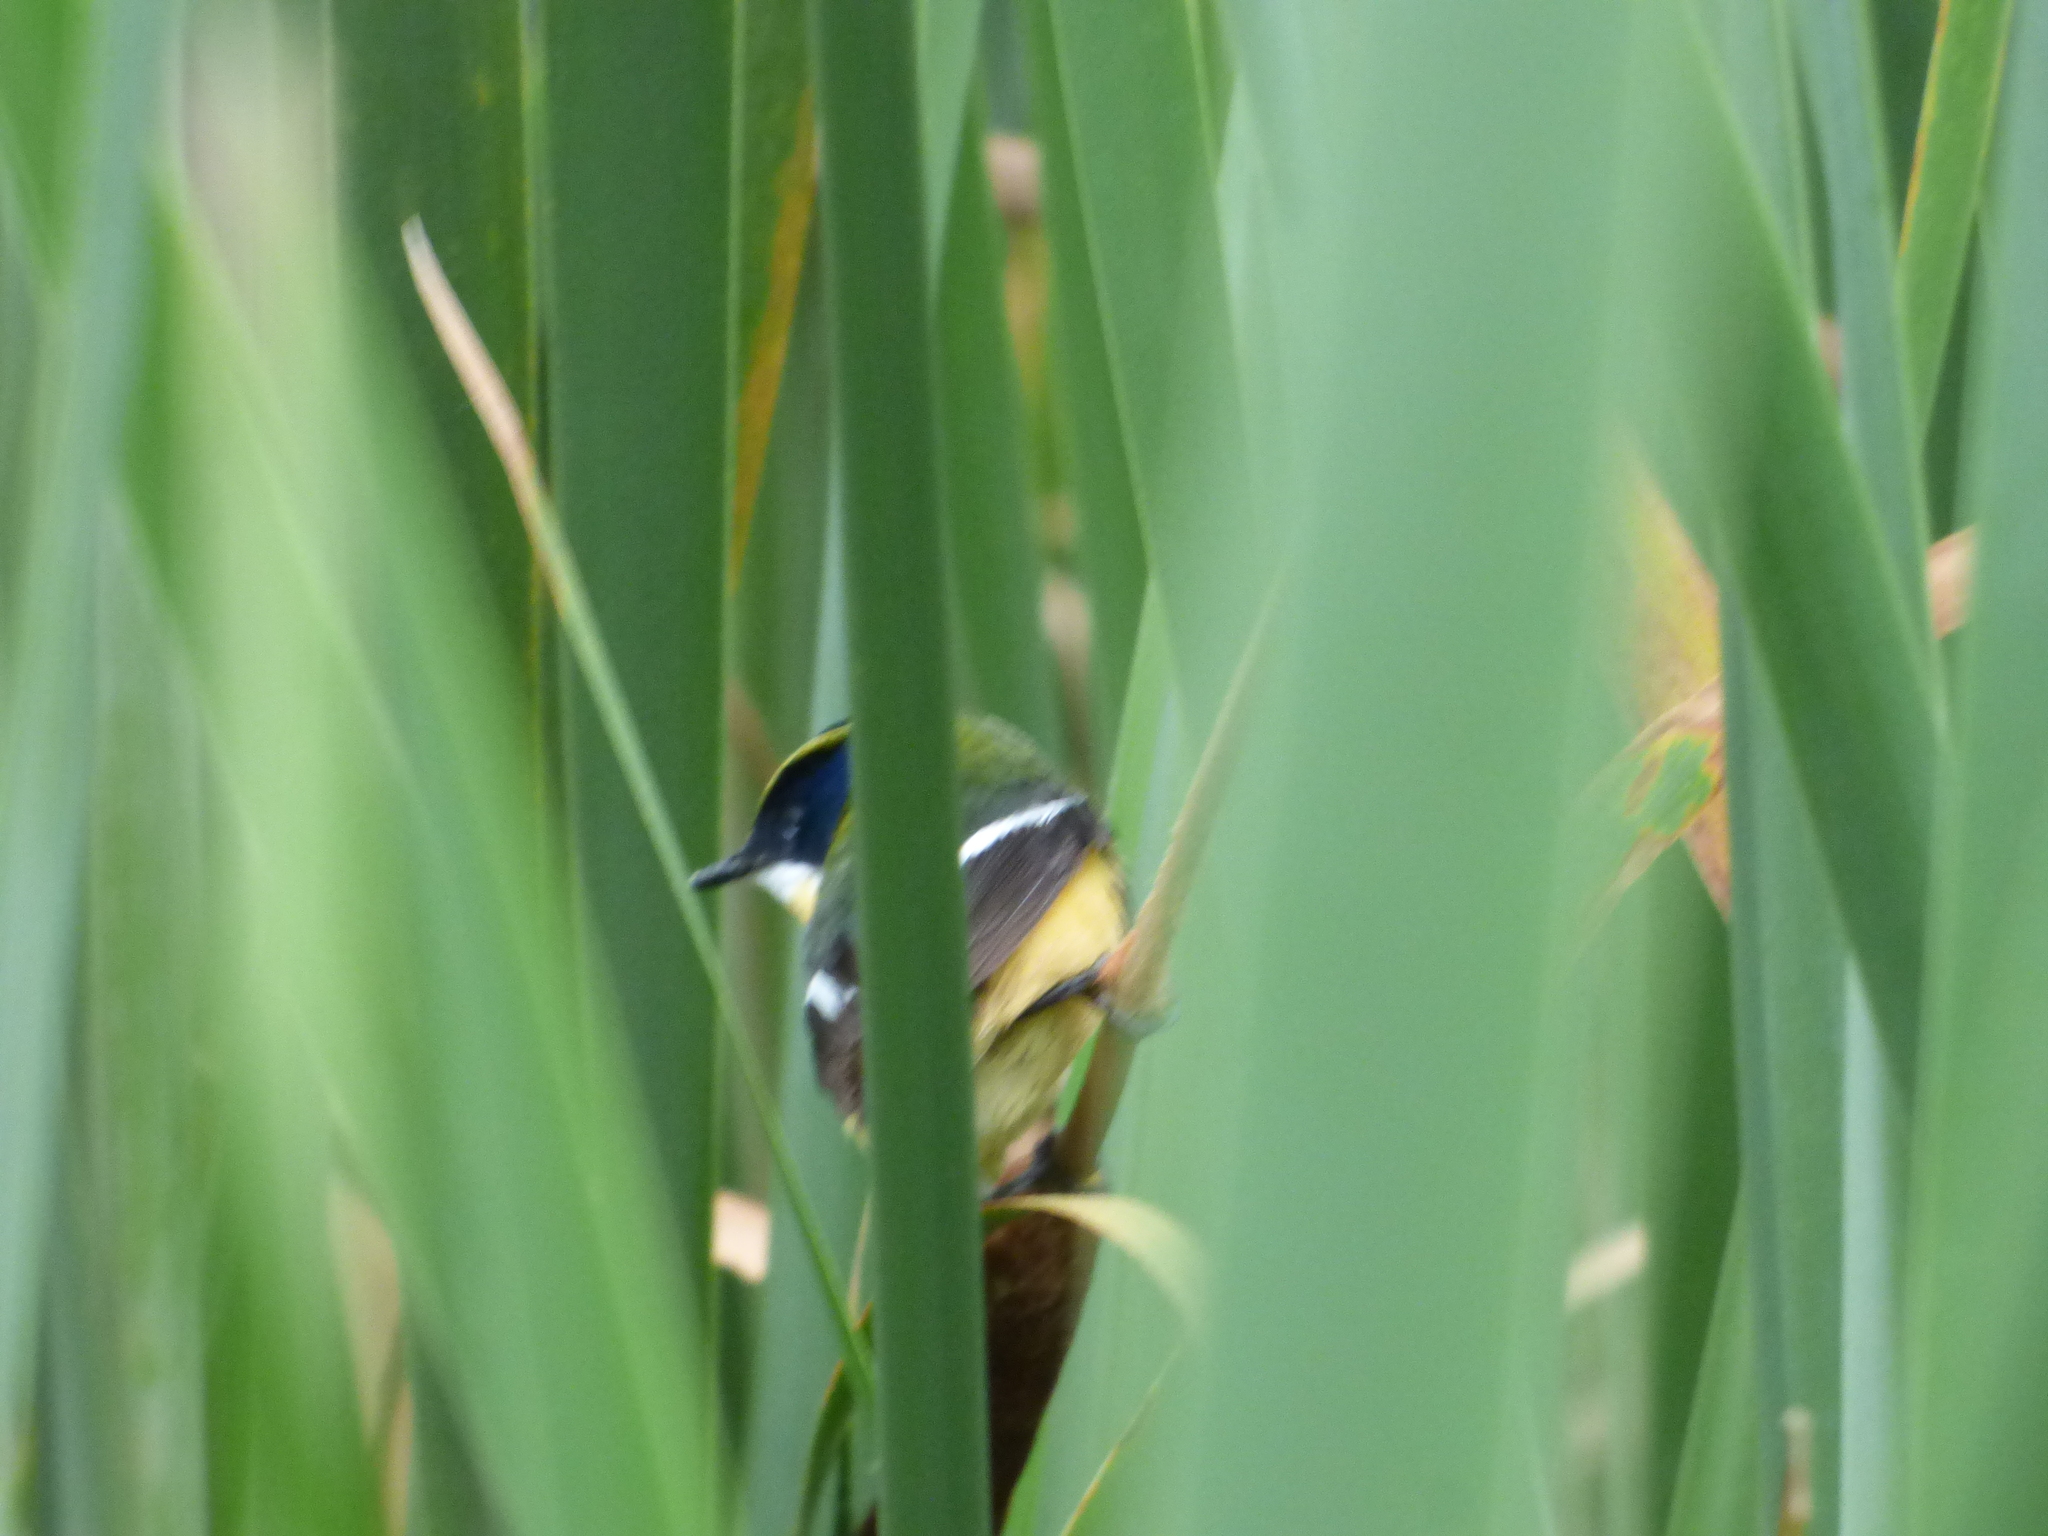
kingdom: Animalia
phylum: Chordata
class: Aves
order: Passeriformes
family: Tyrannidae
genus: Tachuris
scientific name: Tachuris rubrigastra
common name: Many-colored rush tyrant
